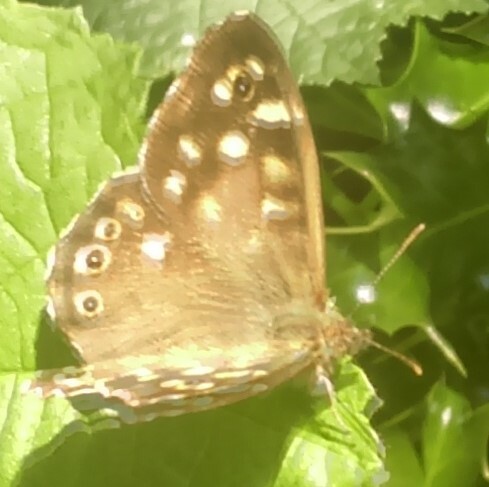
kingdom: Animalia
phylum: Arthropoda
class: Insecta
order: Lepidoptera
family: Nymphalidae
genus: Pararge
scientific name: Pararge aegeria
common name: Speckled wood
